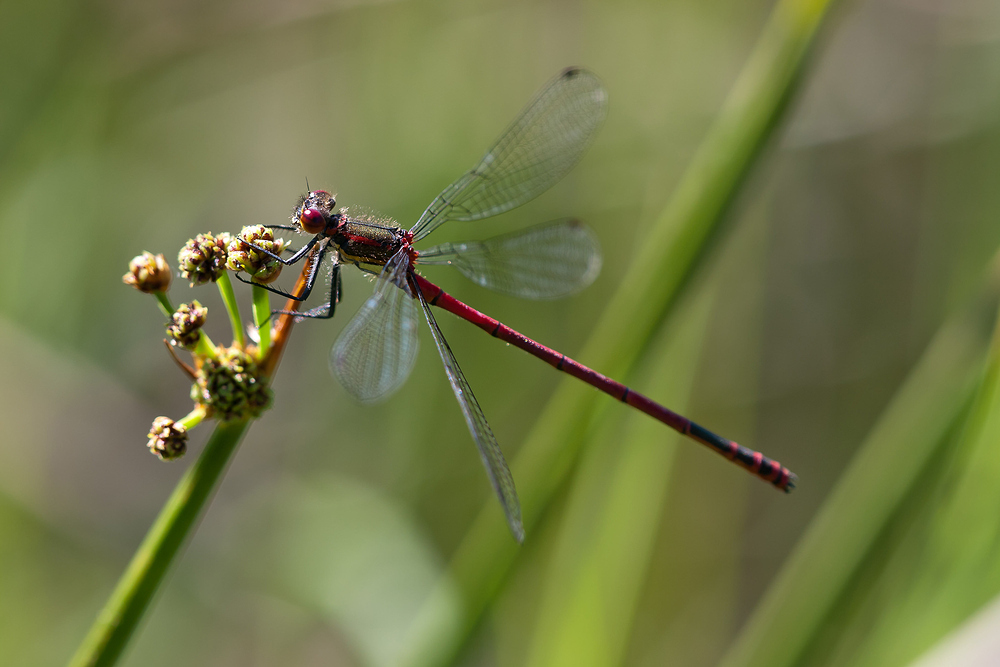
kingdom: Animalia
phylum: Arthropoda
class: Insecta
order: Odonata
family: Coenagrionidae
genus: Pyrrhosoma
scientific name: Pyrrhosoma nymphula
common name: Large red damsel
